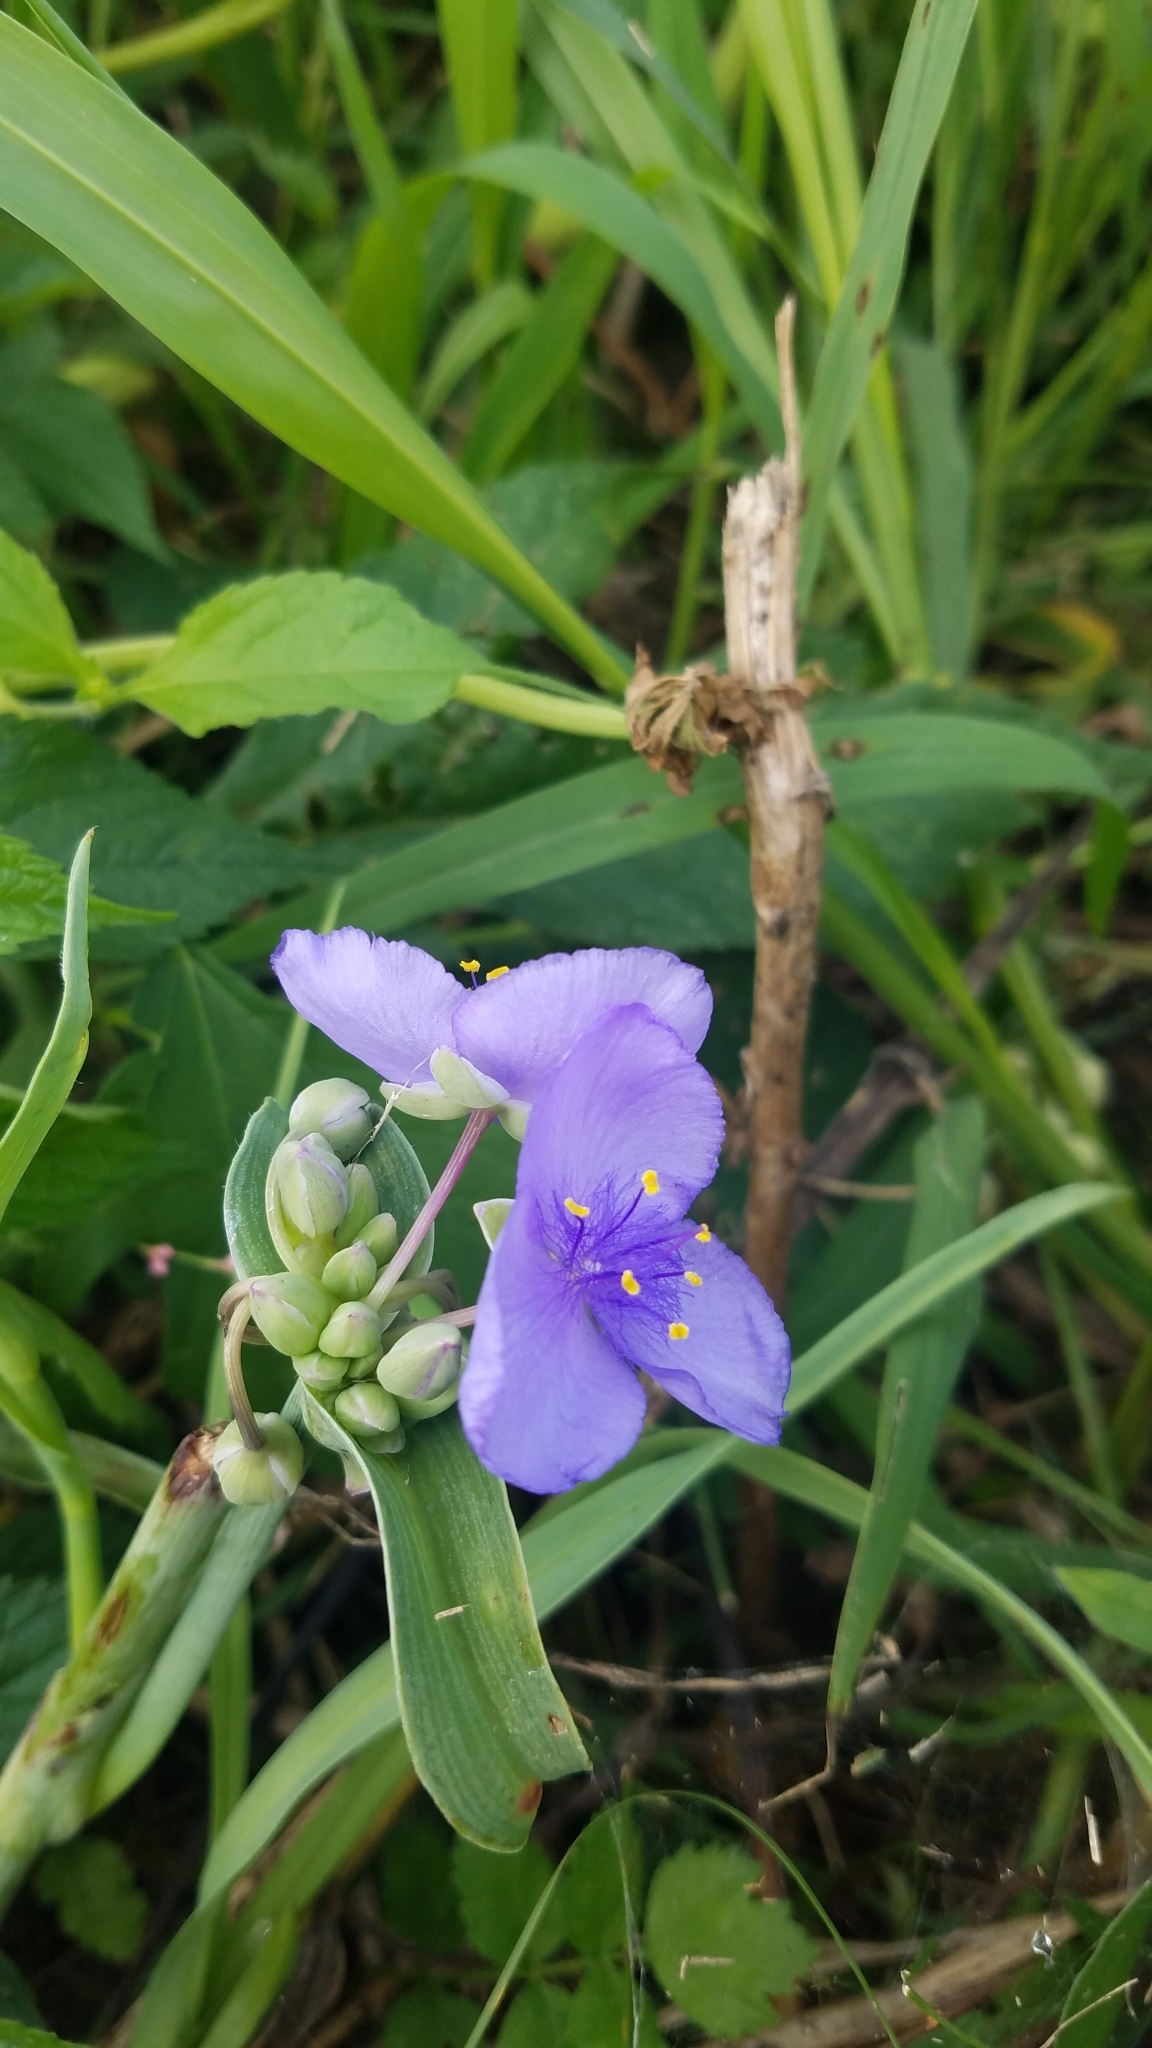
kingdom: Plantae
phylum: Tracheophyta
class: Liliopsida
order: Commelinales
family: Commelinaceae
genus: Tradescantia
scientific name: Tradescantia ohiensis
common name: Ohio spiderwort
